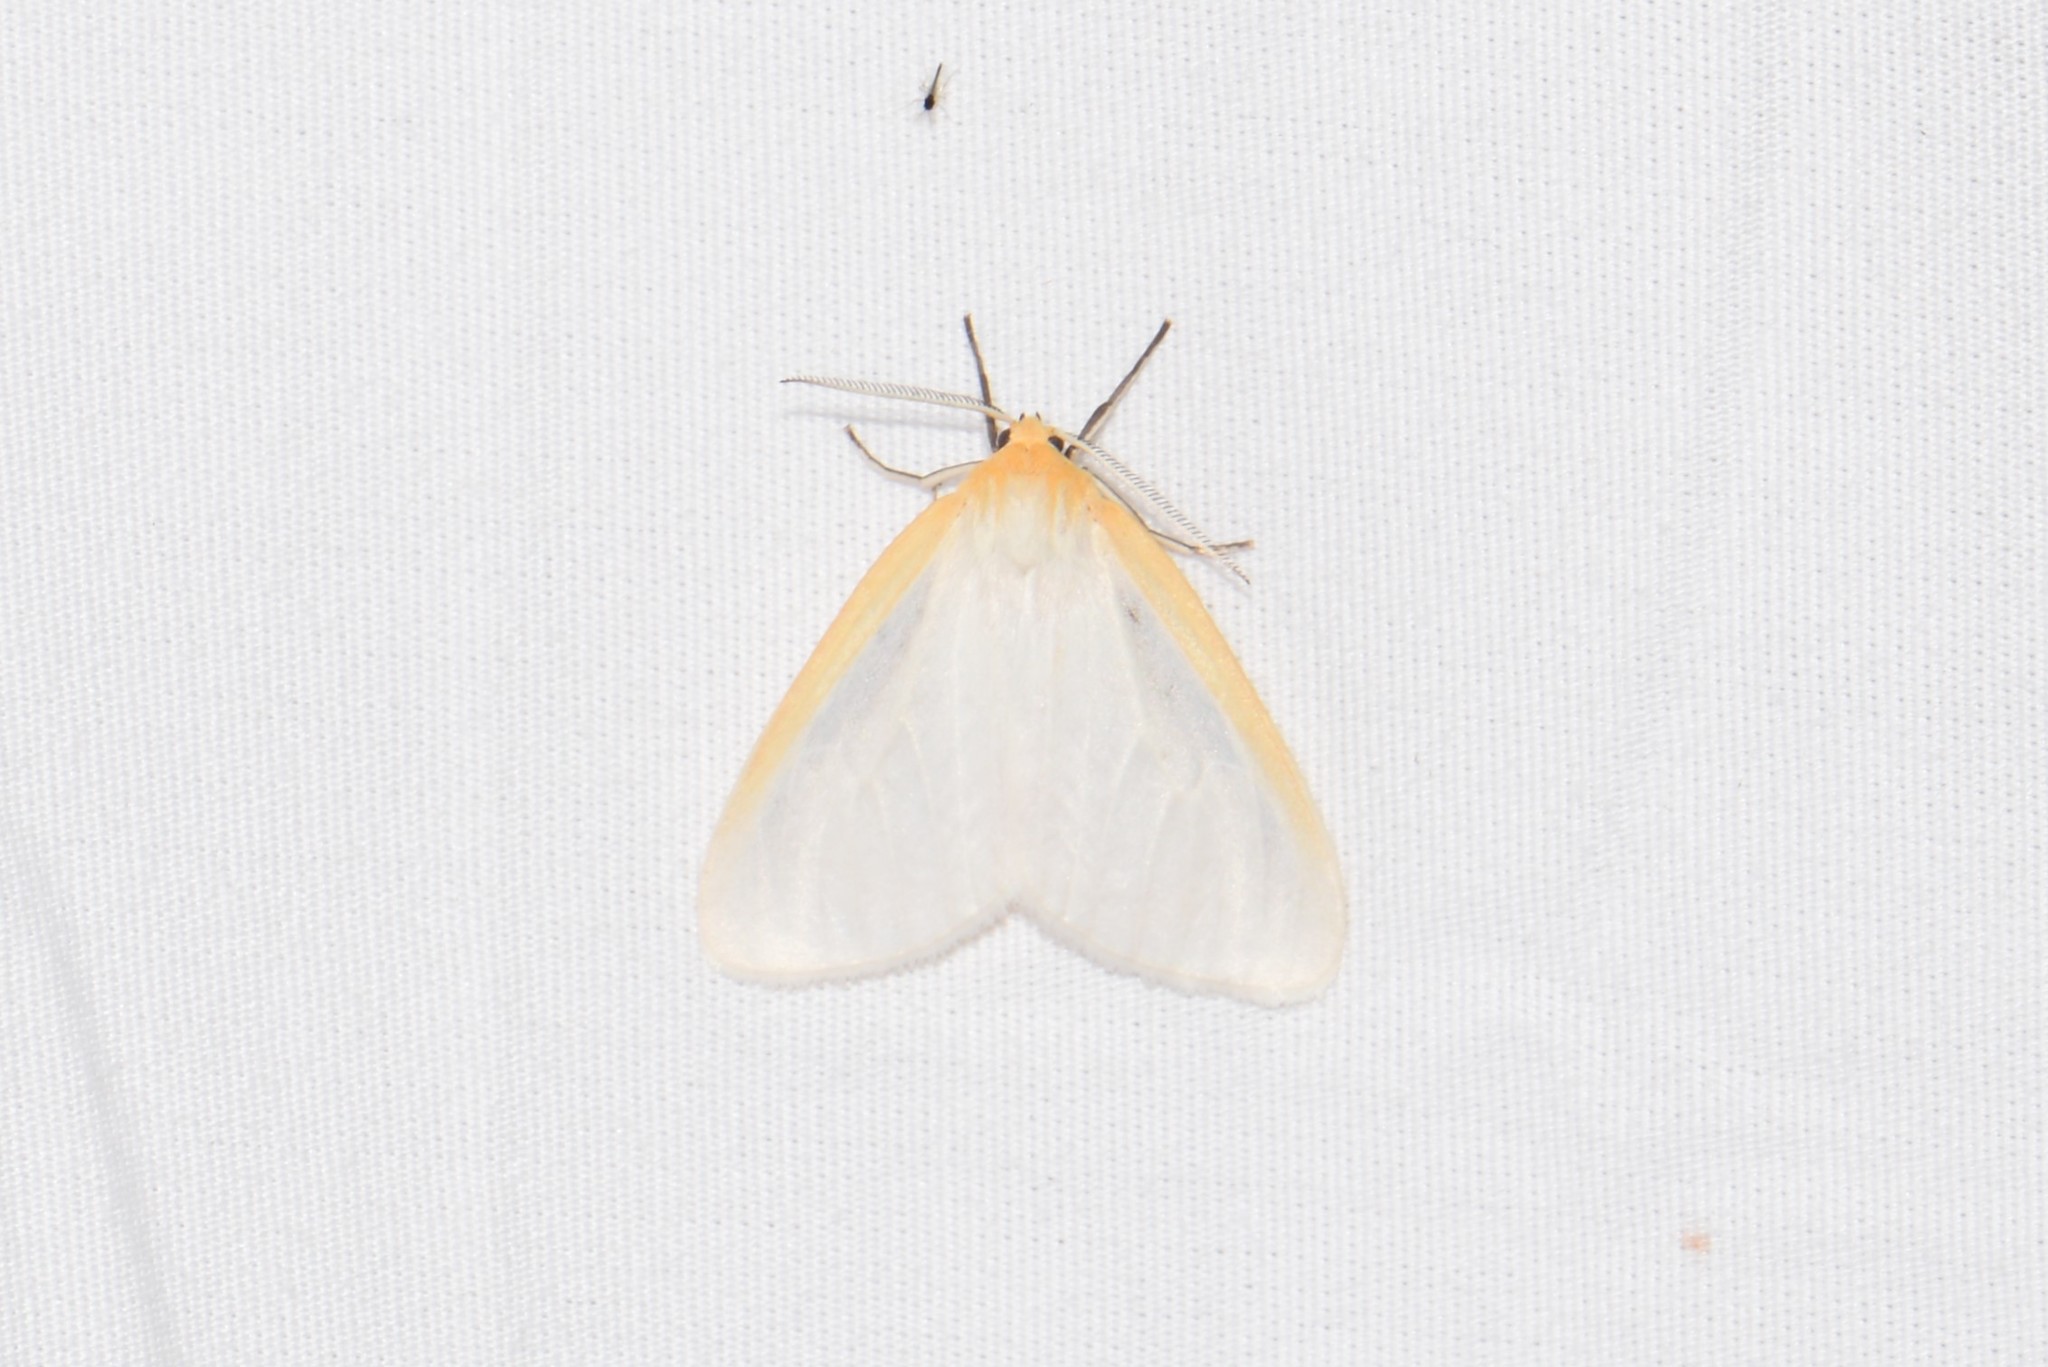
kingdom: Animalia
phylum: Arthropoda
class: Insecta
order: Lepidoptera
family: Erebidae
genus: Cycnia
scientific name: Cycnia tenera
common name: Delicate cycnia moth
